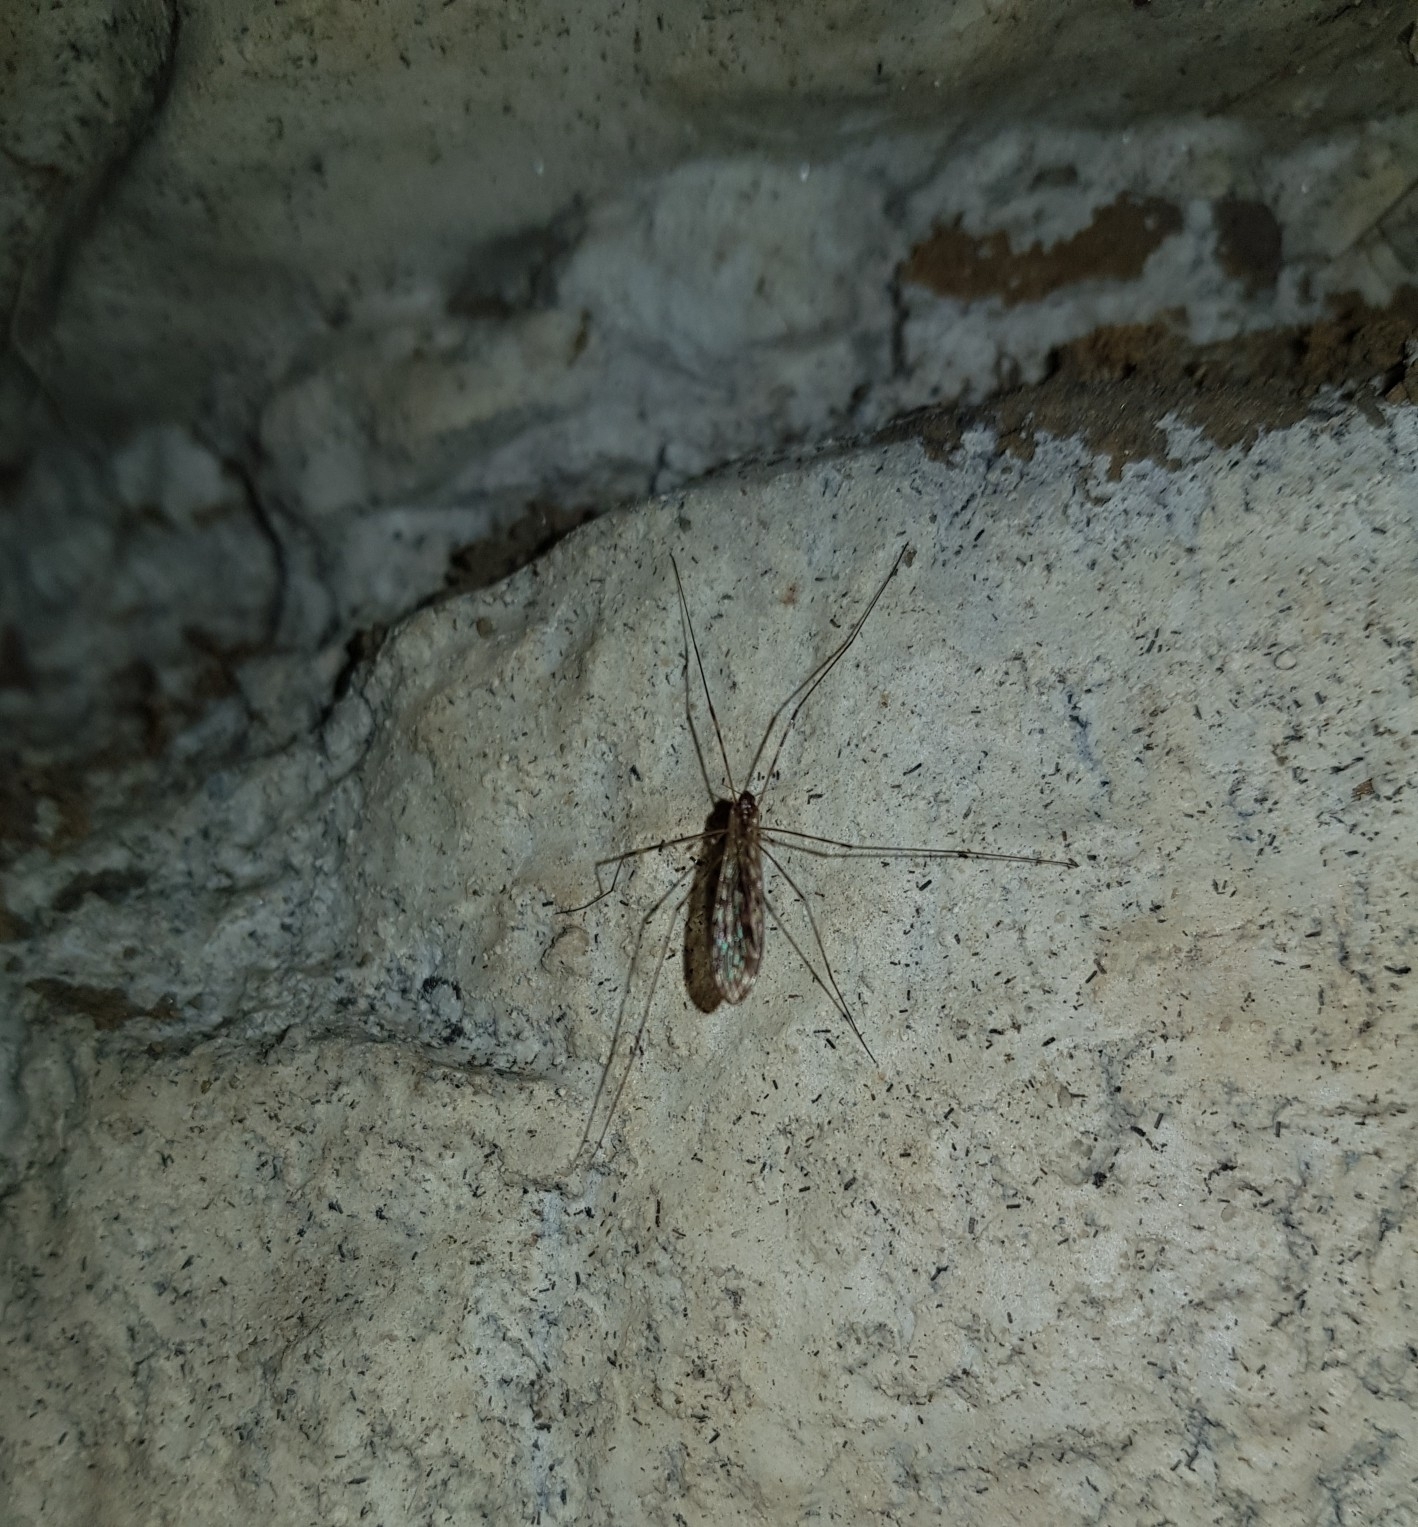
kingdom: Animalia
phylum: Arthropoda
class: Insecta
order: Diptera
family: Limoniidae
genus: Limonia
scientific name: Limonia nubeculosa
